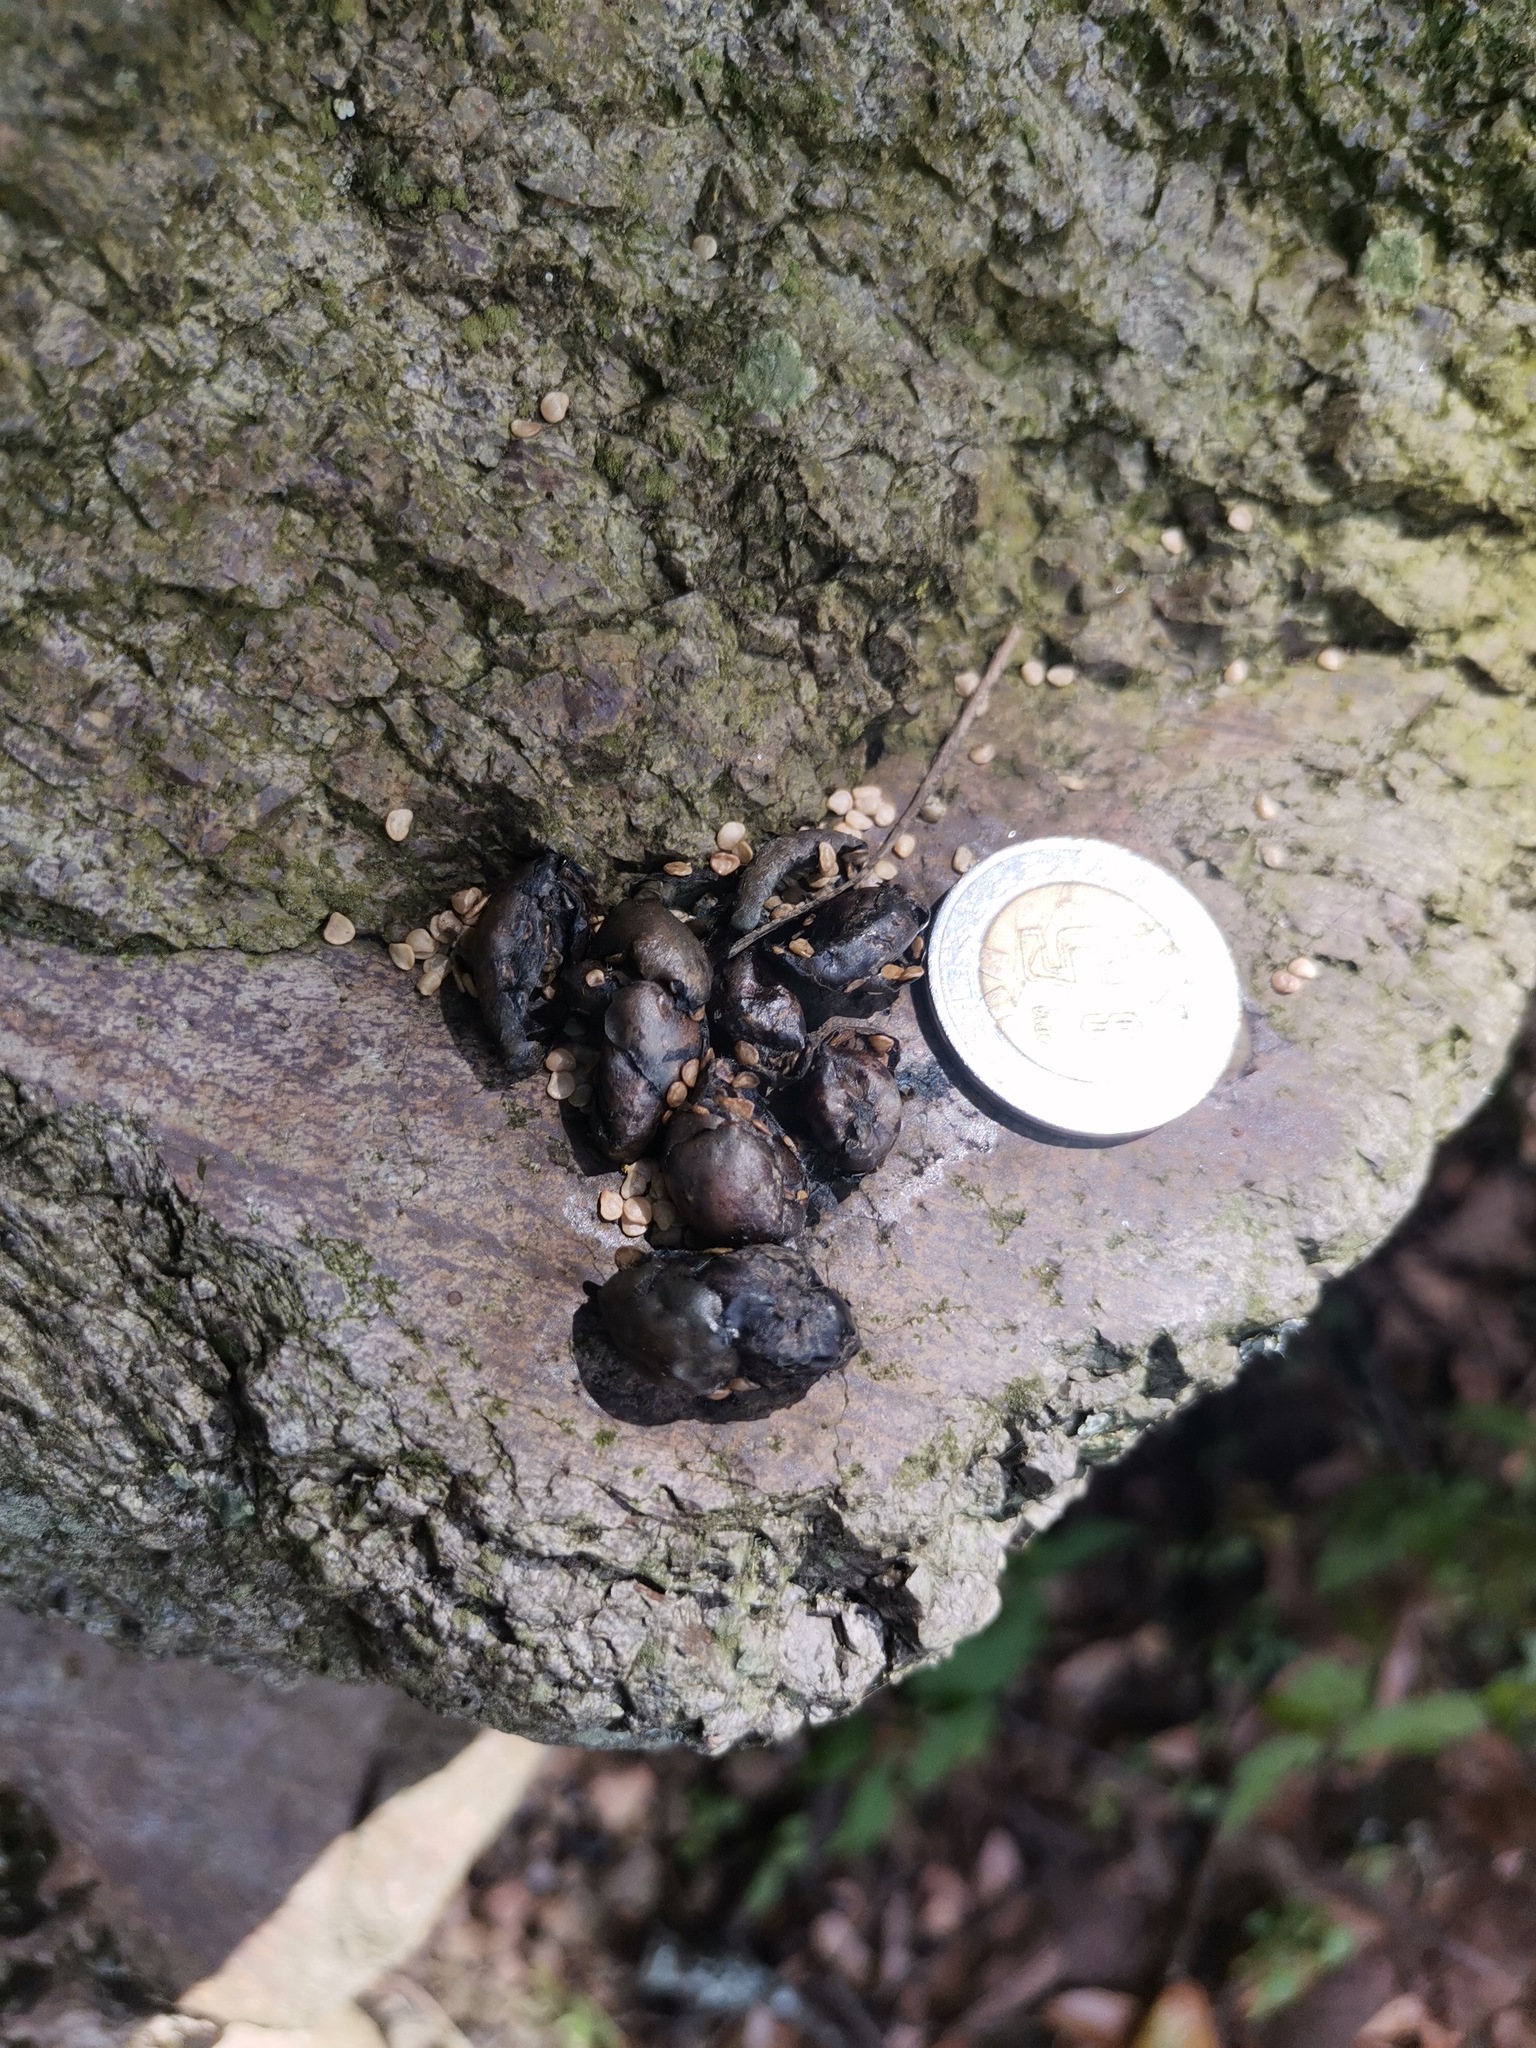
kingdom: Animalia
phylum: Chordata
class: Mammalia
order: Carnivora
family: Procyonidae
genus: Bassariscus
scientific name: Bassariscus astutus
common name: Ringtail
